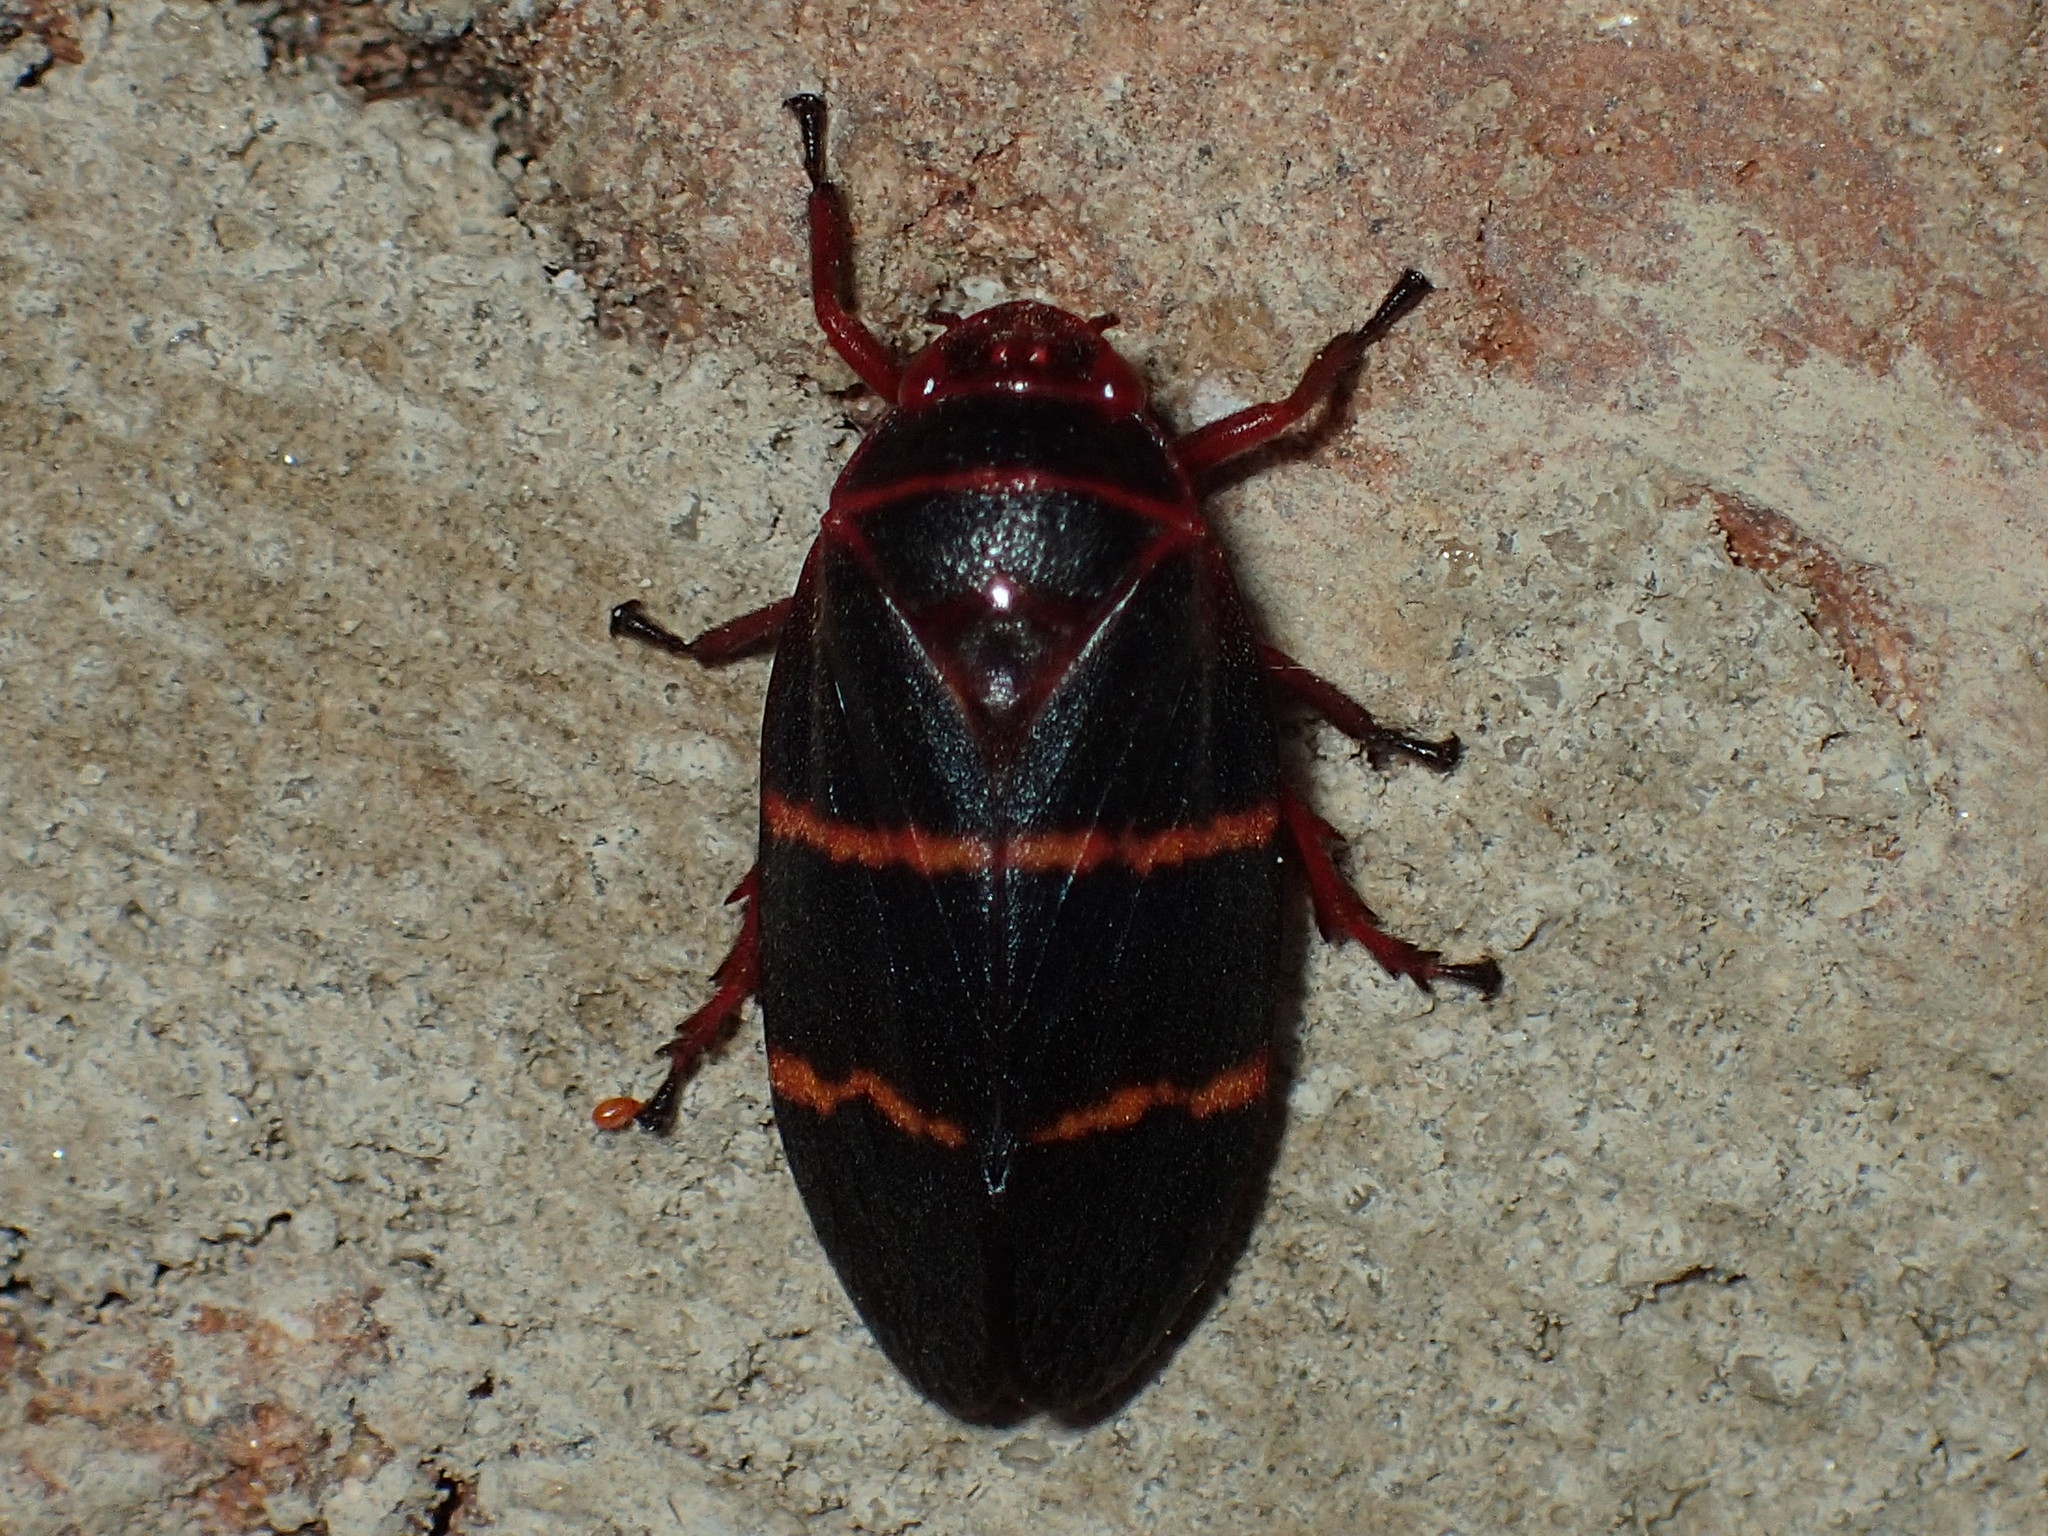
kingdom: Animalia
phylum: Arthropoda
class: Insecta
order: Hemiptera
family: Cercopidae
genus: Prosapia
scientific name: Prosapia bicincta
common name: Twolined spittlebug
